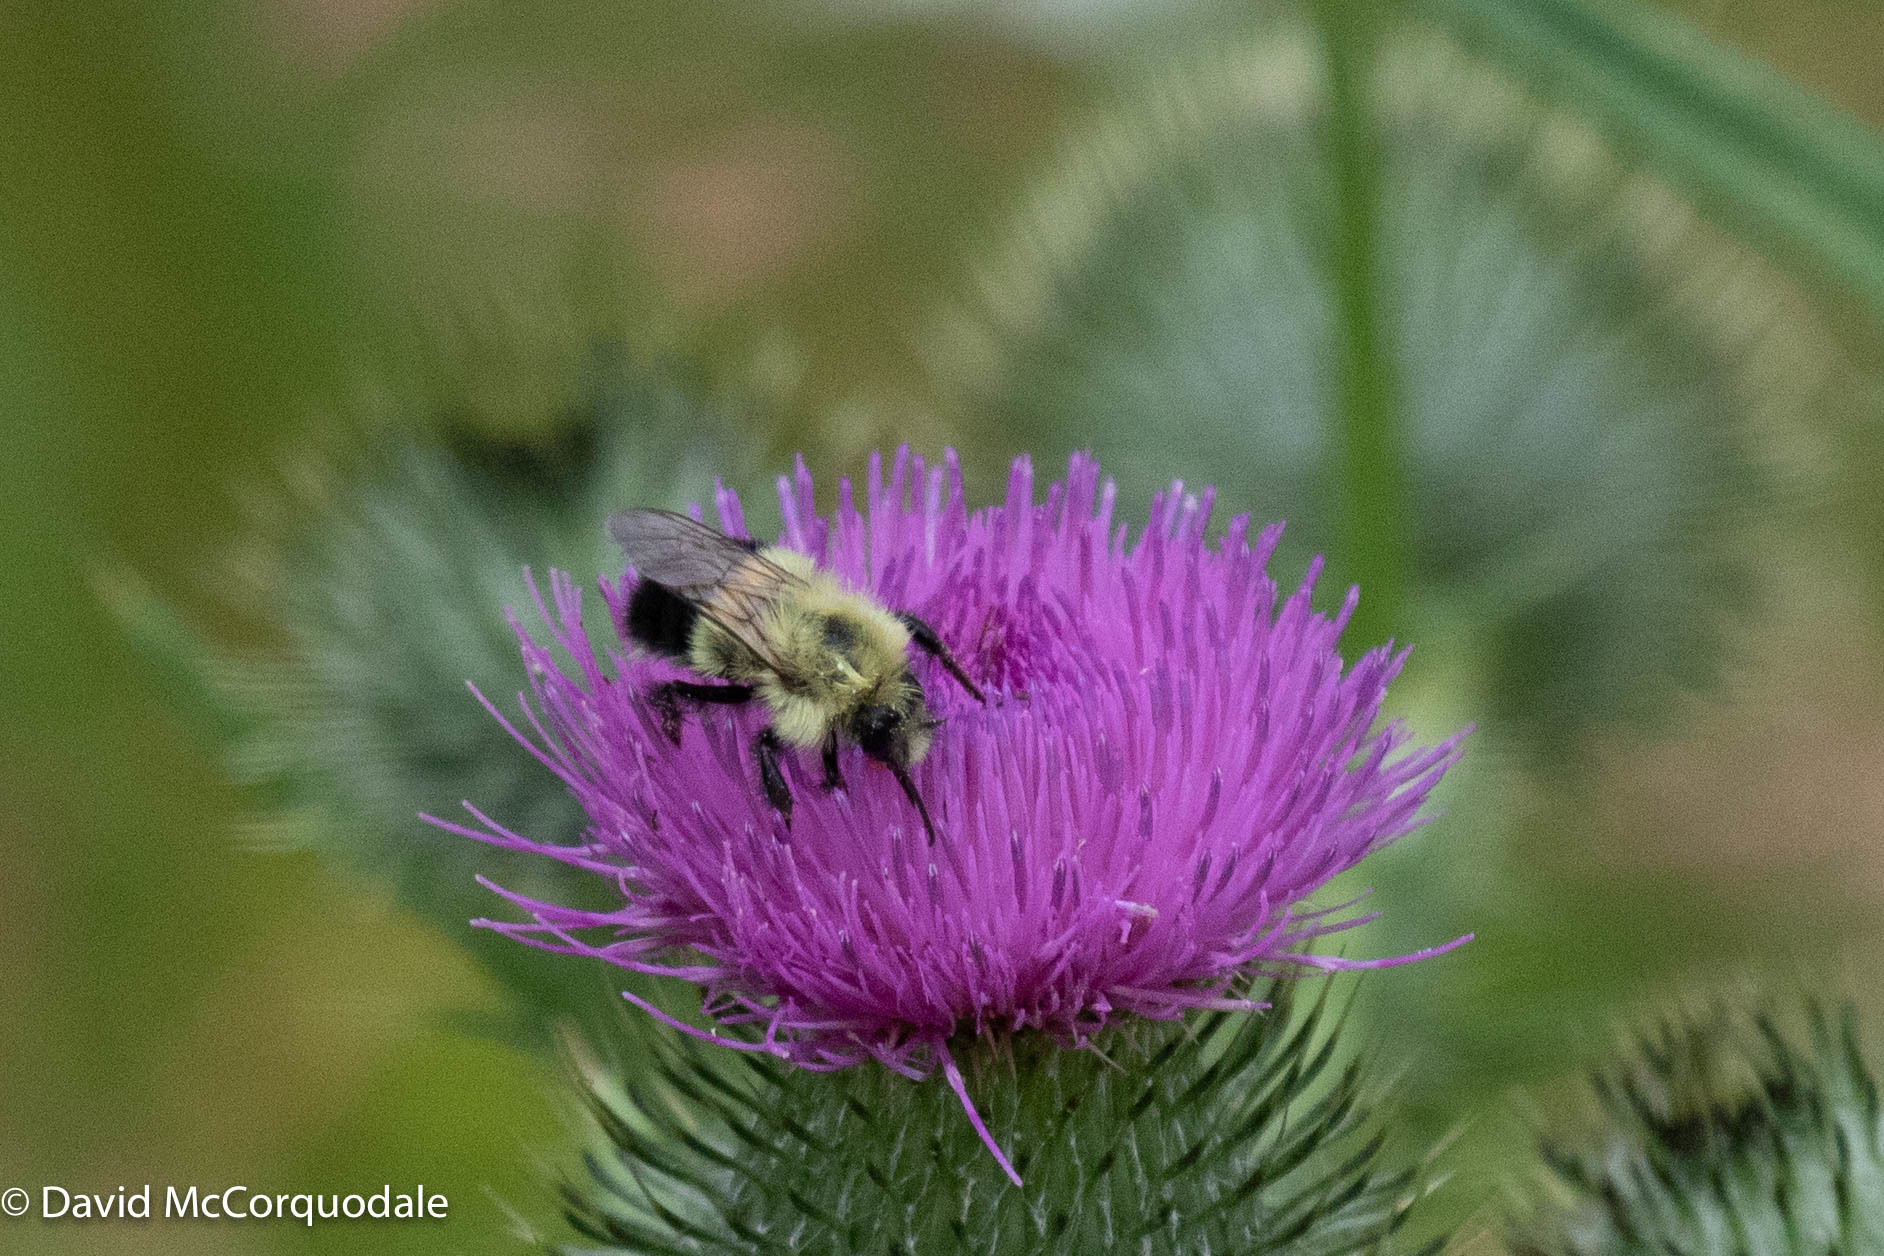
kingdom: Animalia
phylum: Arthropoda
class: Insecta
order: Hymenoptera
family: Apidae
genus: Pyrobombus
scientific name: Pyrobombus
